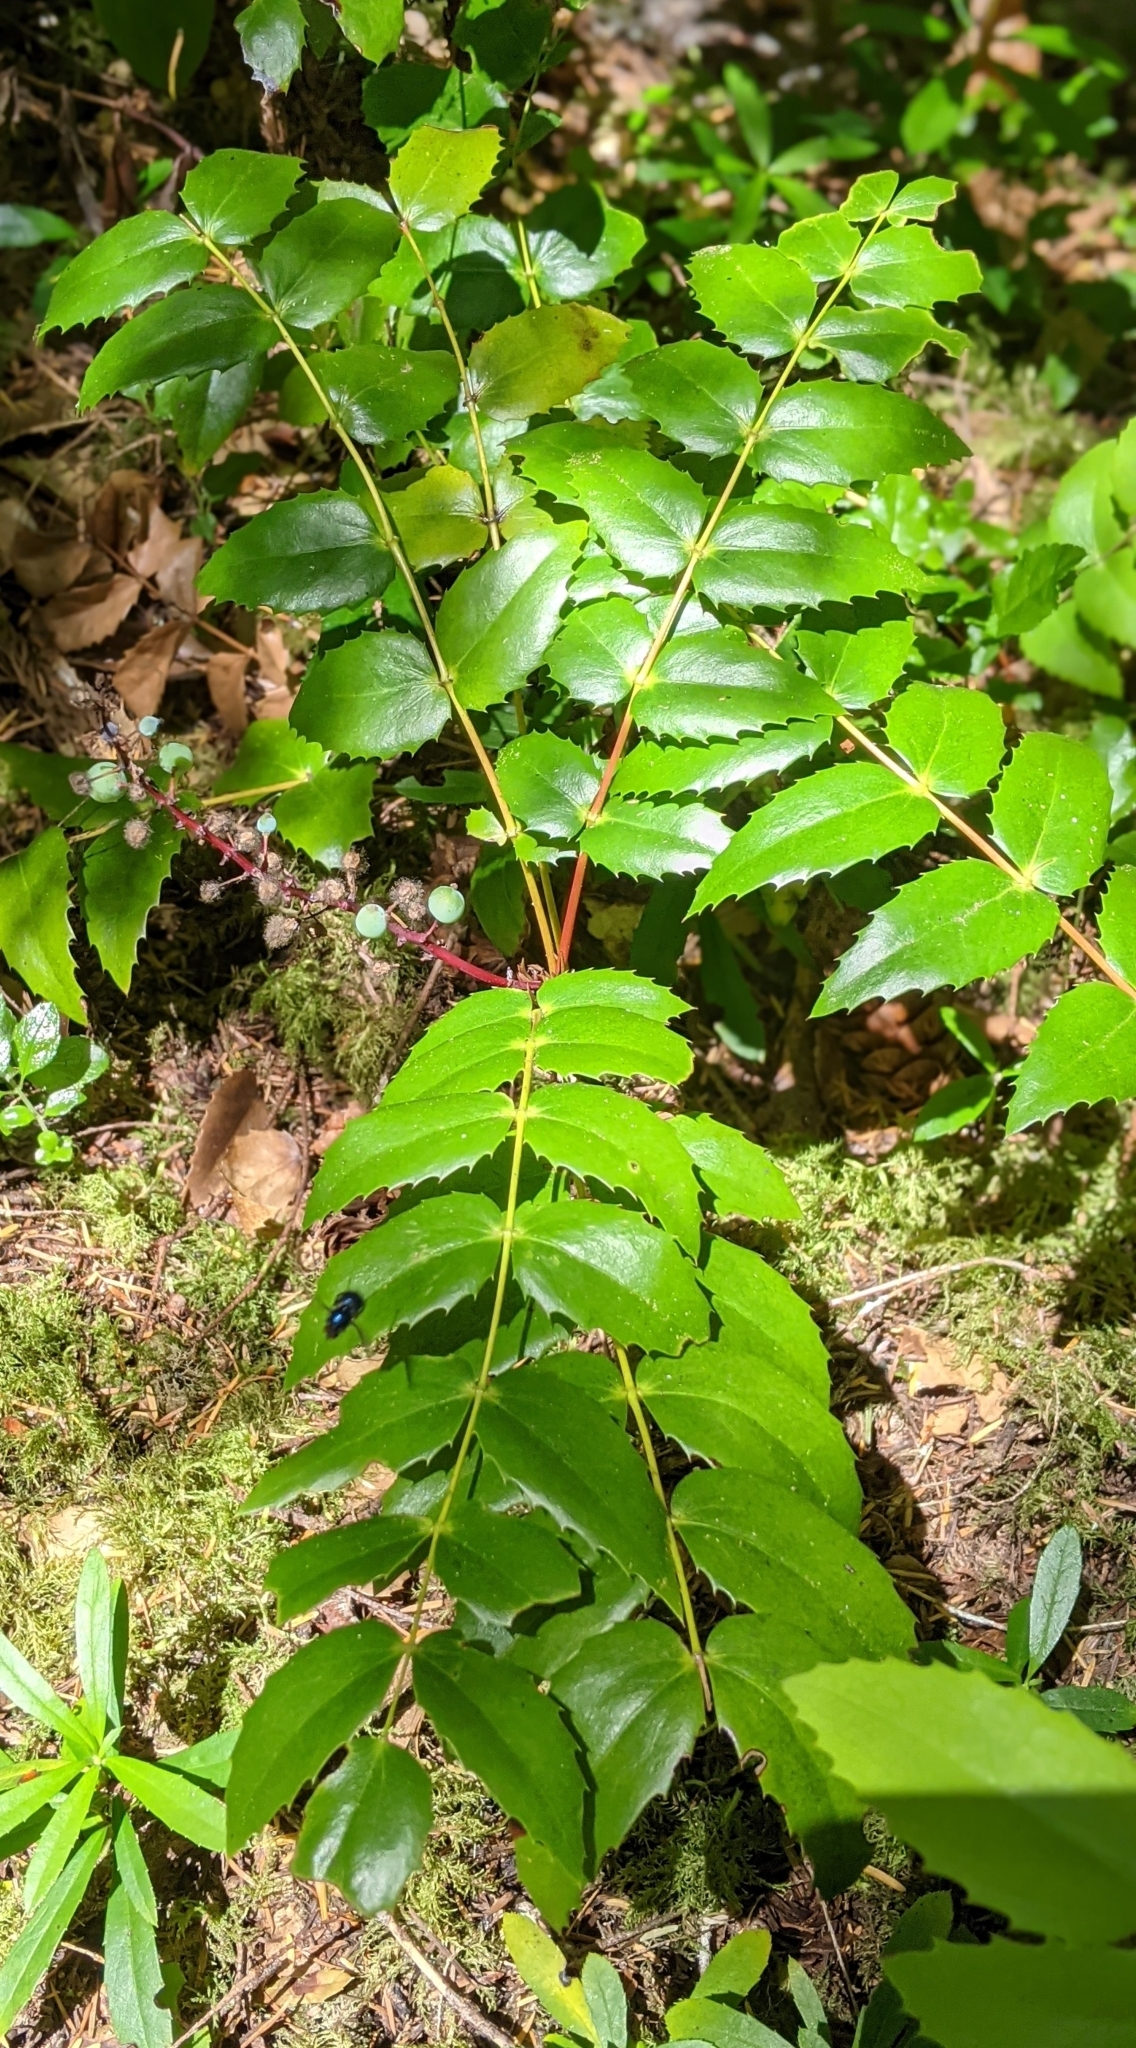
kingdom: Plantae
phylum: Tracheophyta
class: Magnoliopsida
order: Ranunculales
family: Berberidaceae
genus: Mahonia
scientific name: Mahonia nervosa
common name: Cascade oregon-grape
